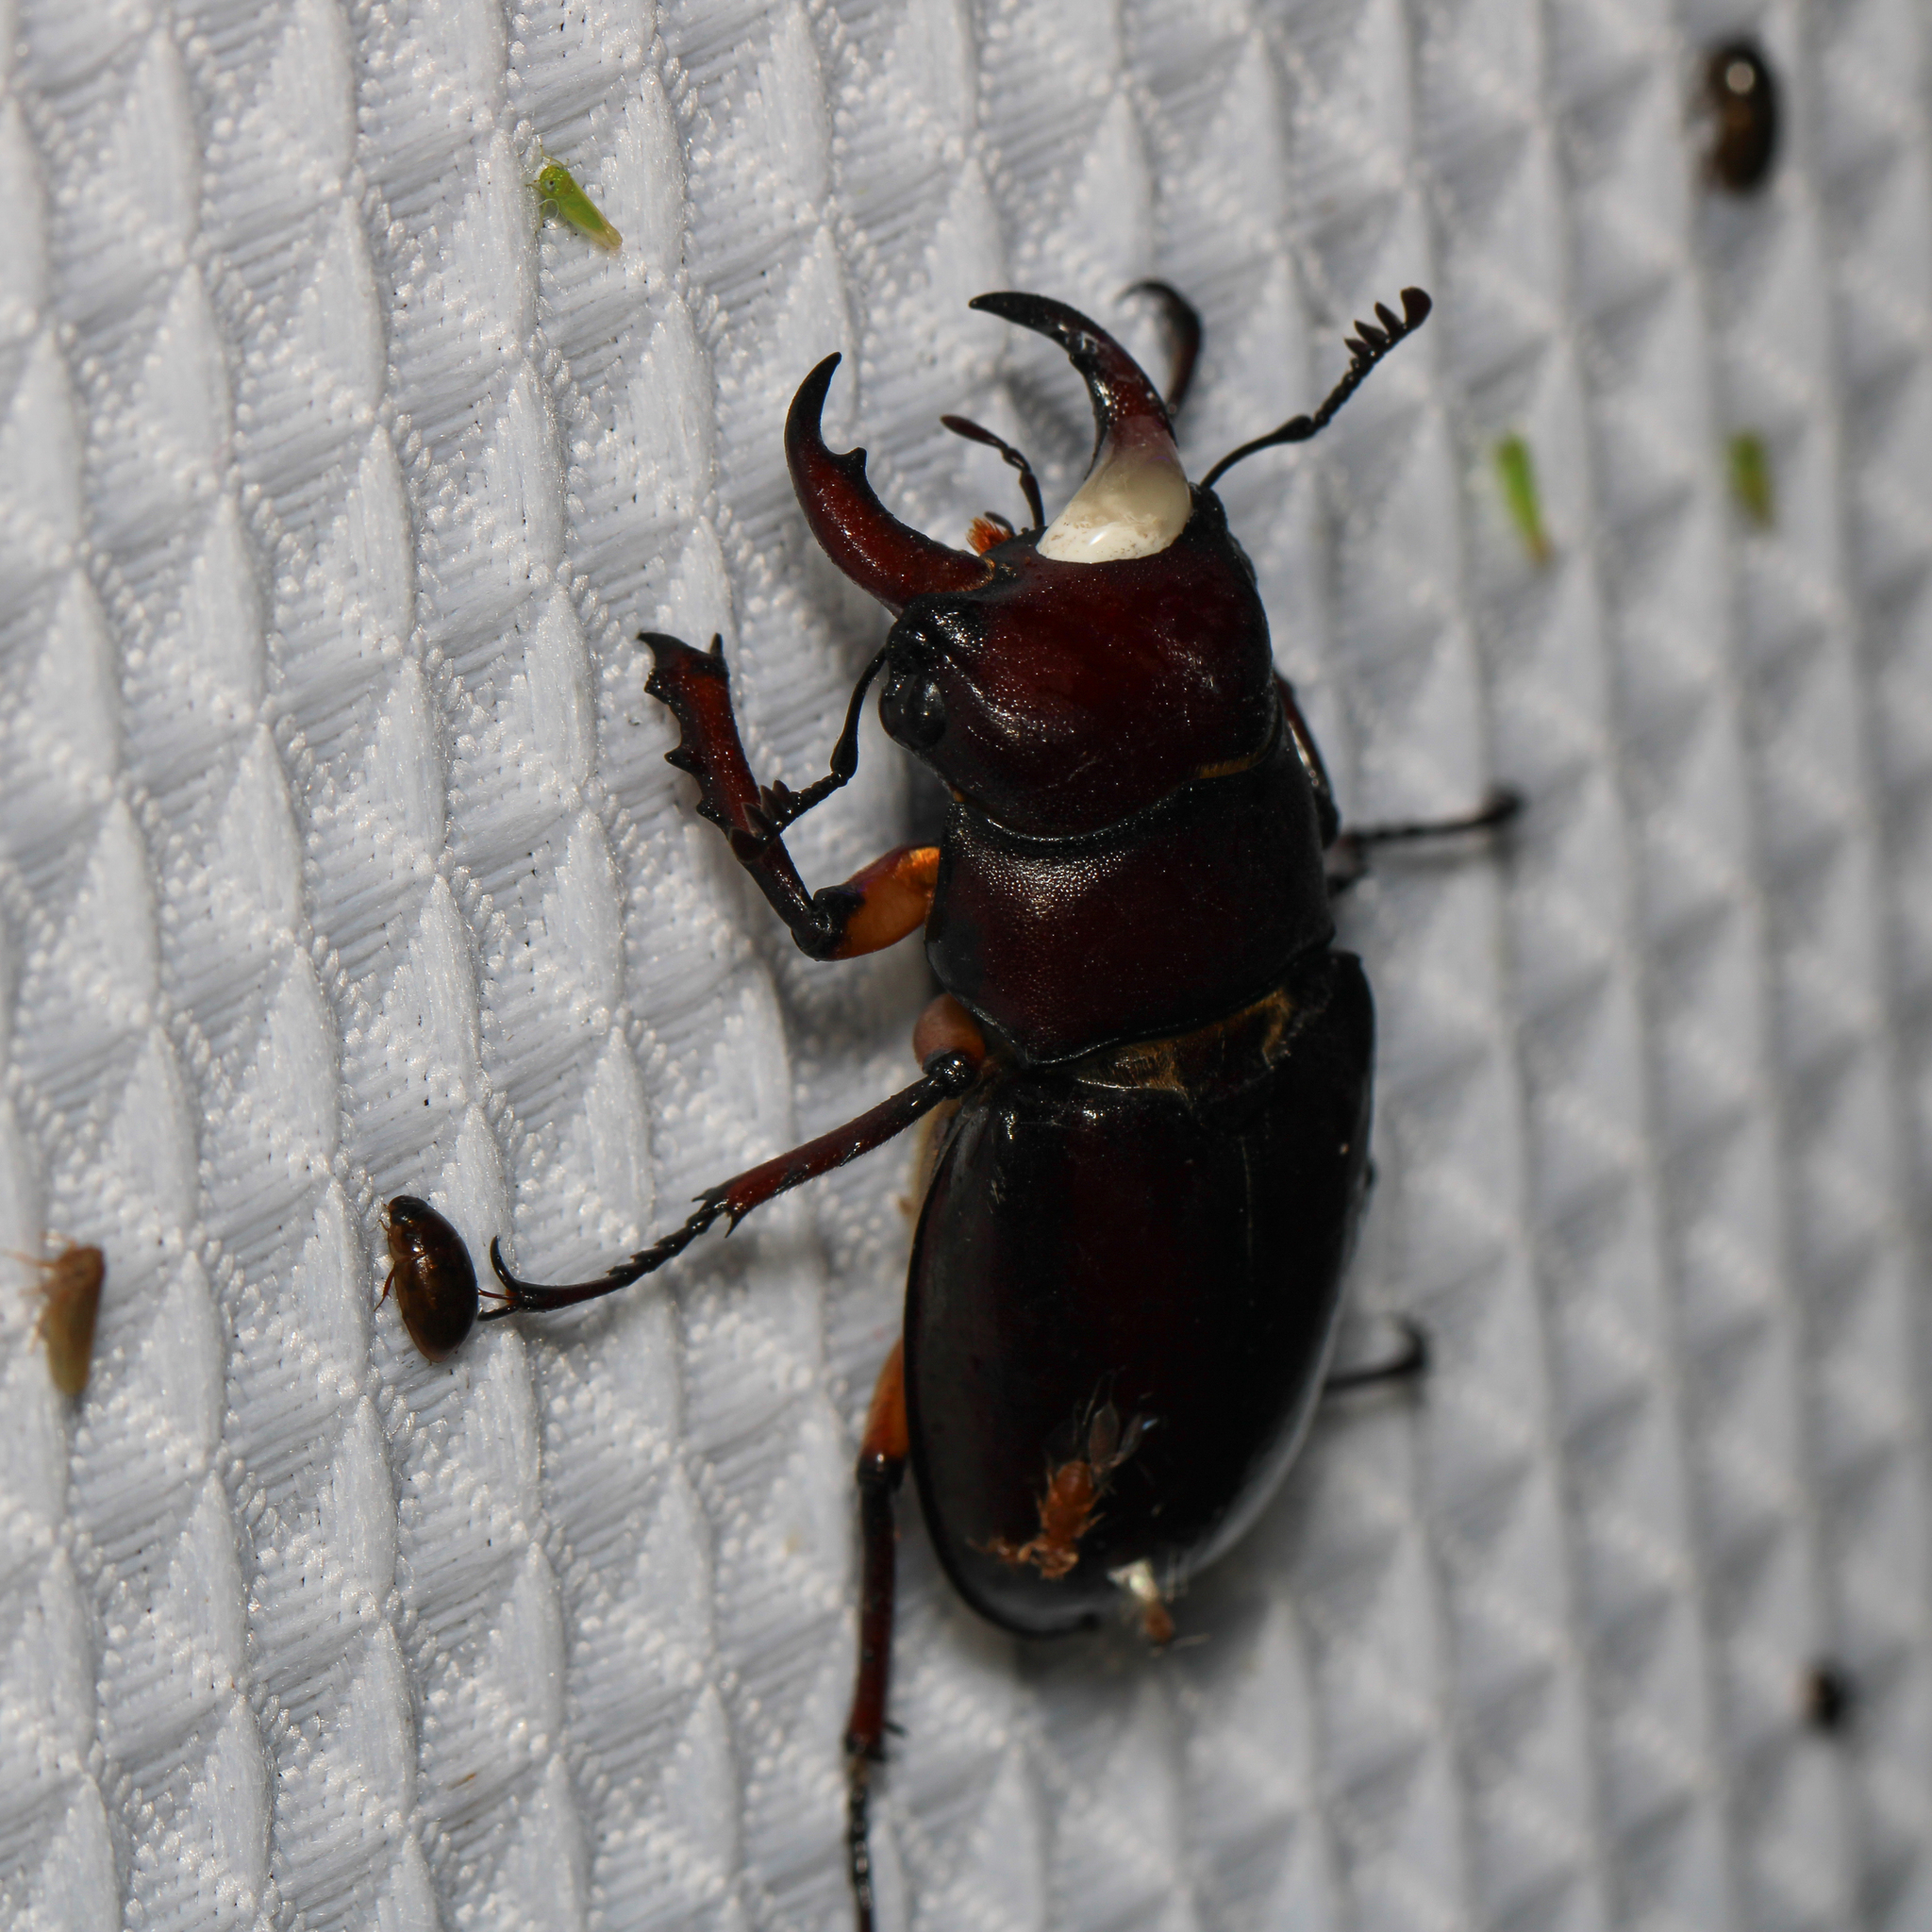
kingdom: Animalia
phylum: Arthropoda
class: Insecta
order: Coleoptera
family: Lucanidae
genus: Lucanus
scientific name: Lucanus capreolus
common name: Stag beetle
